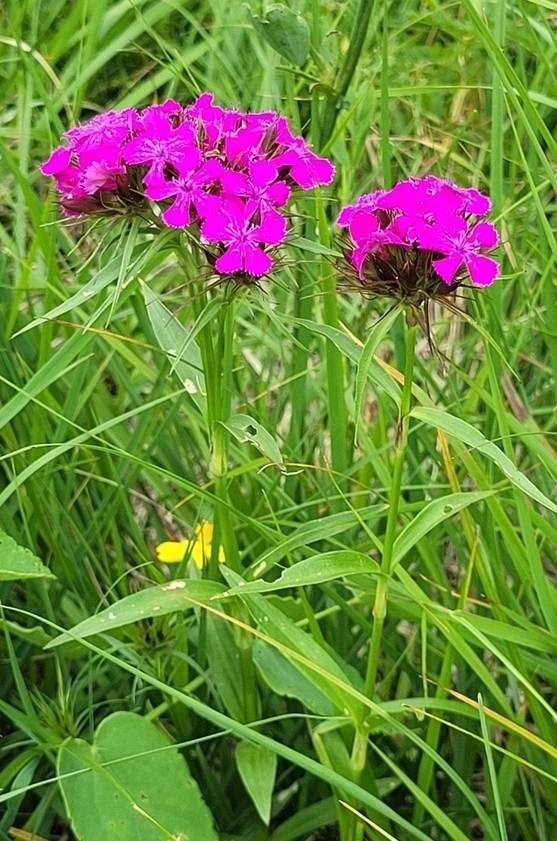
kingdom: Plantae
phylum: Tracheophyta
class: Magnoliopsida
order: Caryophyllales
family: Caryophyllaceae
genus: Dianthus
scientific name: Dianthus barbatus
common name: Sweet-william
